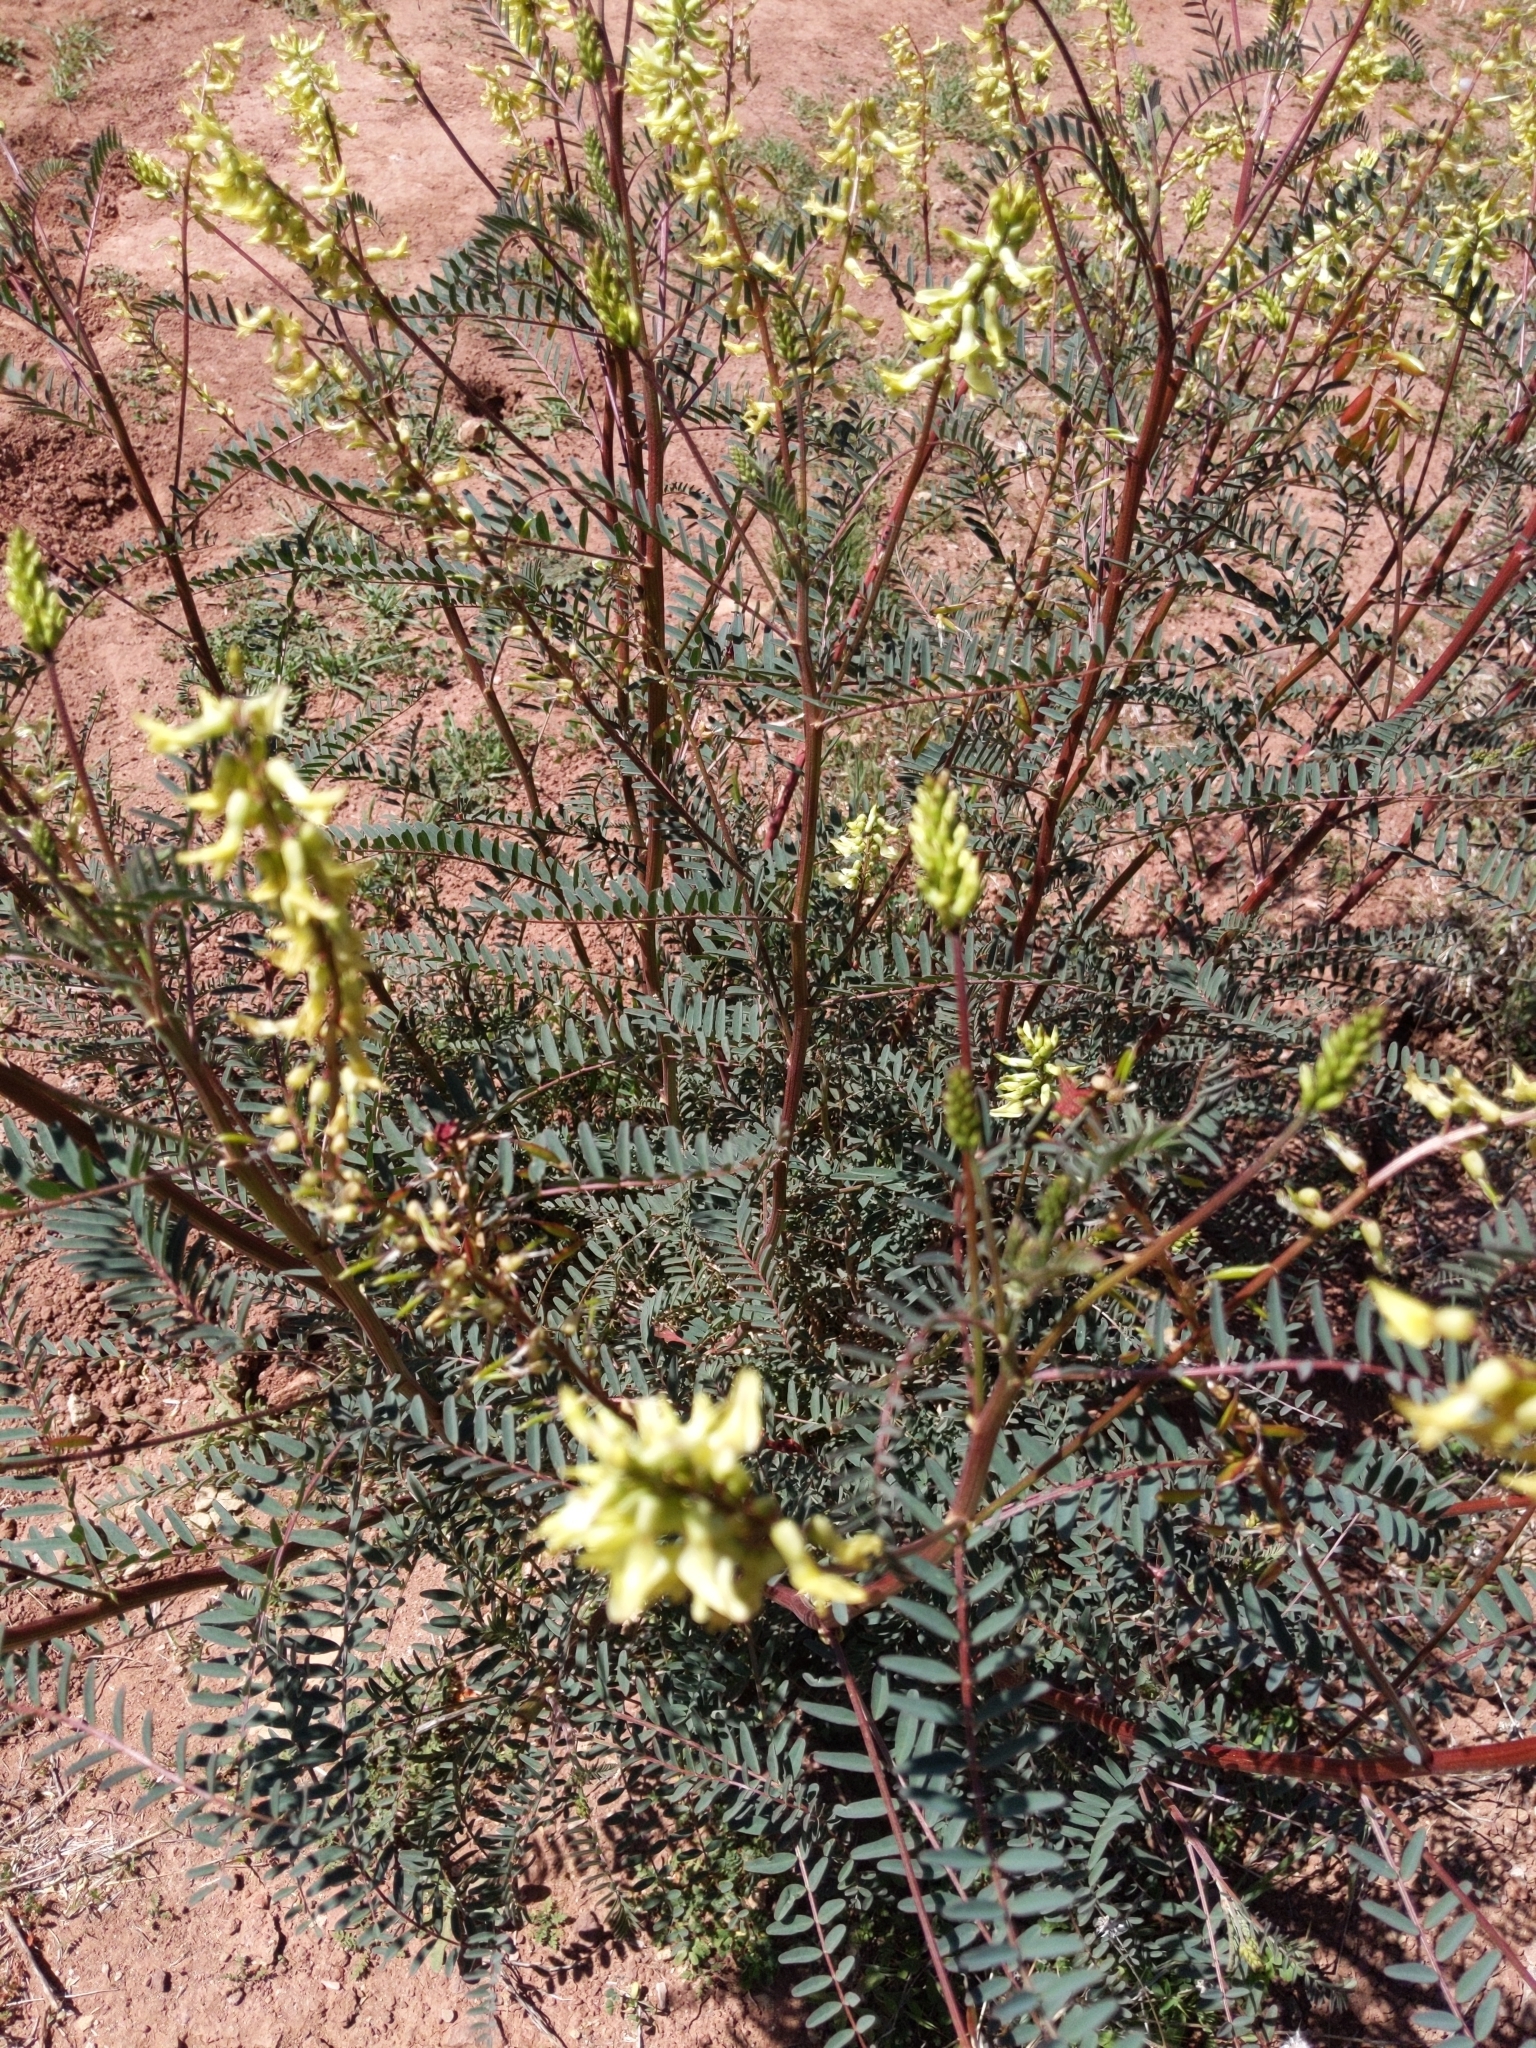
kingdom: Plantae
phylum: Tracheophyta
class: Magnoliopsida
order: Fabales
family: Fabaceae
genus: Astragalus
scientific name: Astragalus trichopodus
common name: Santa barbara milk-vetch
